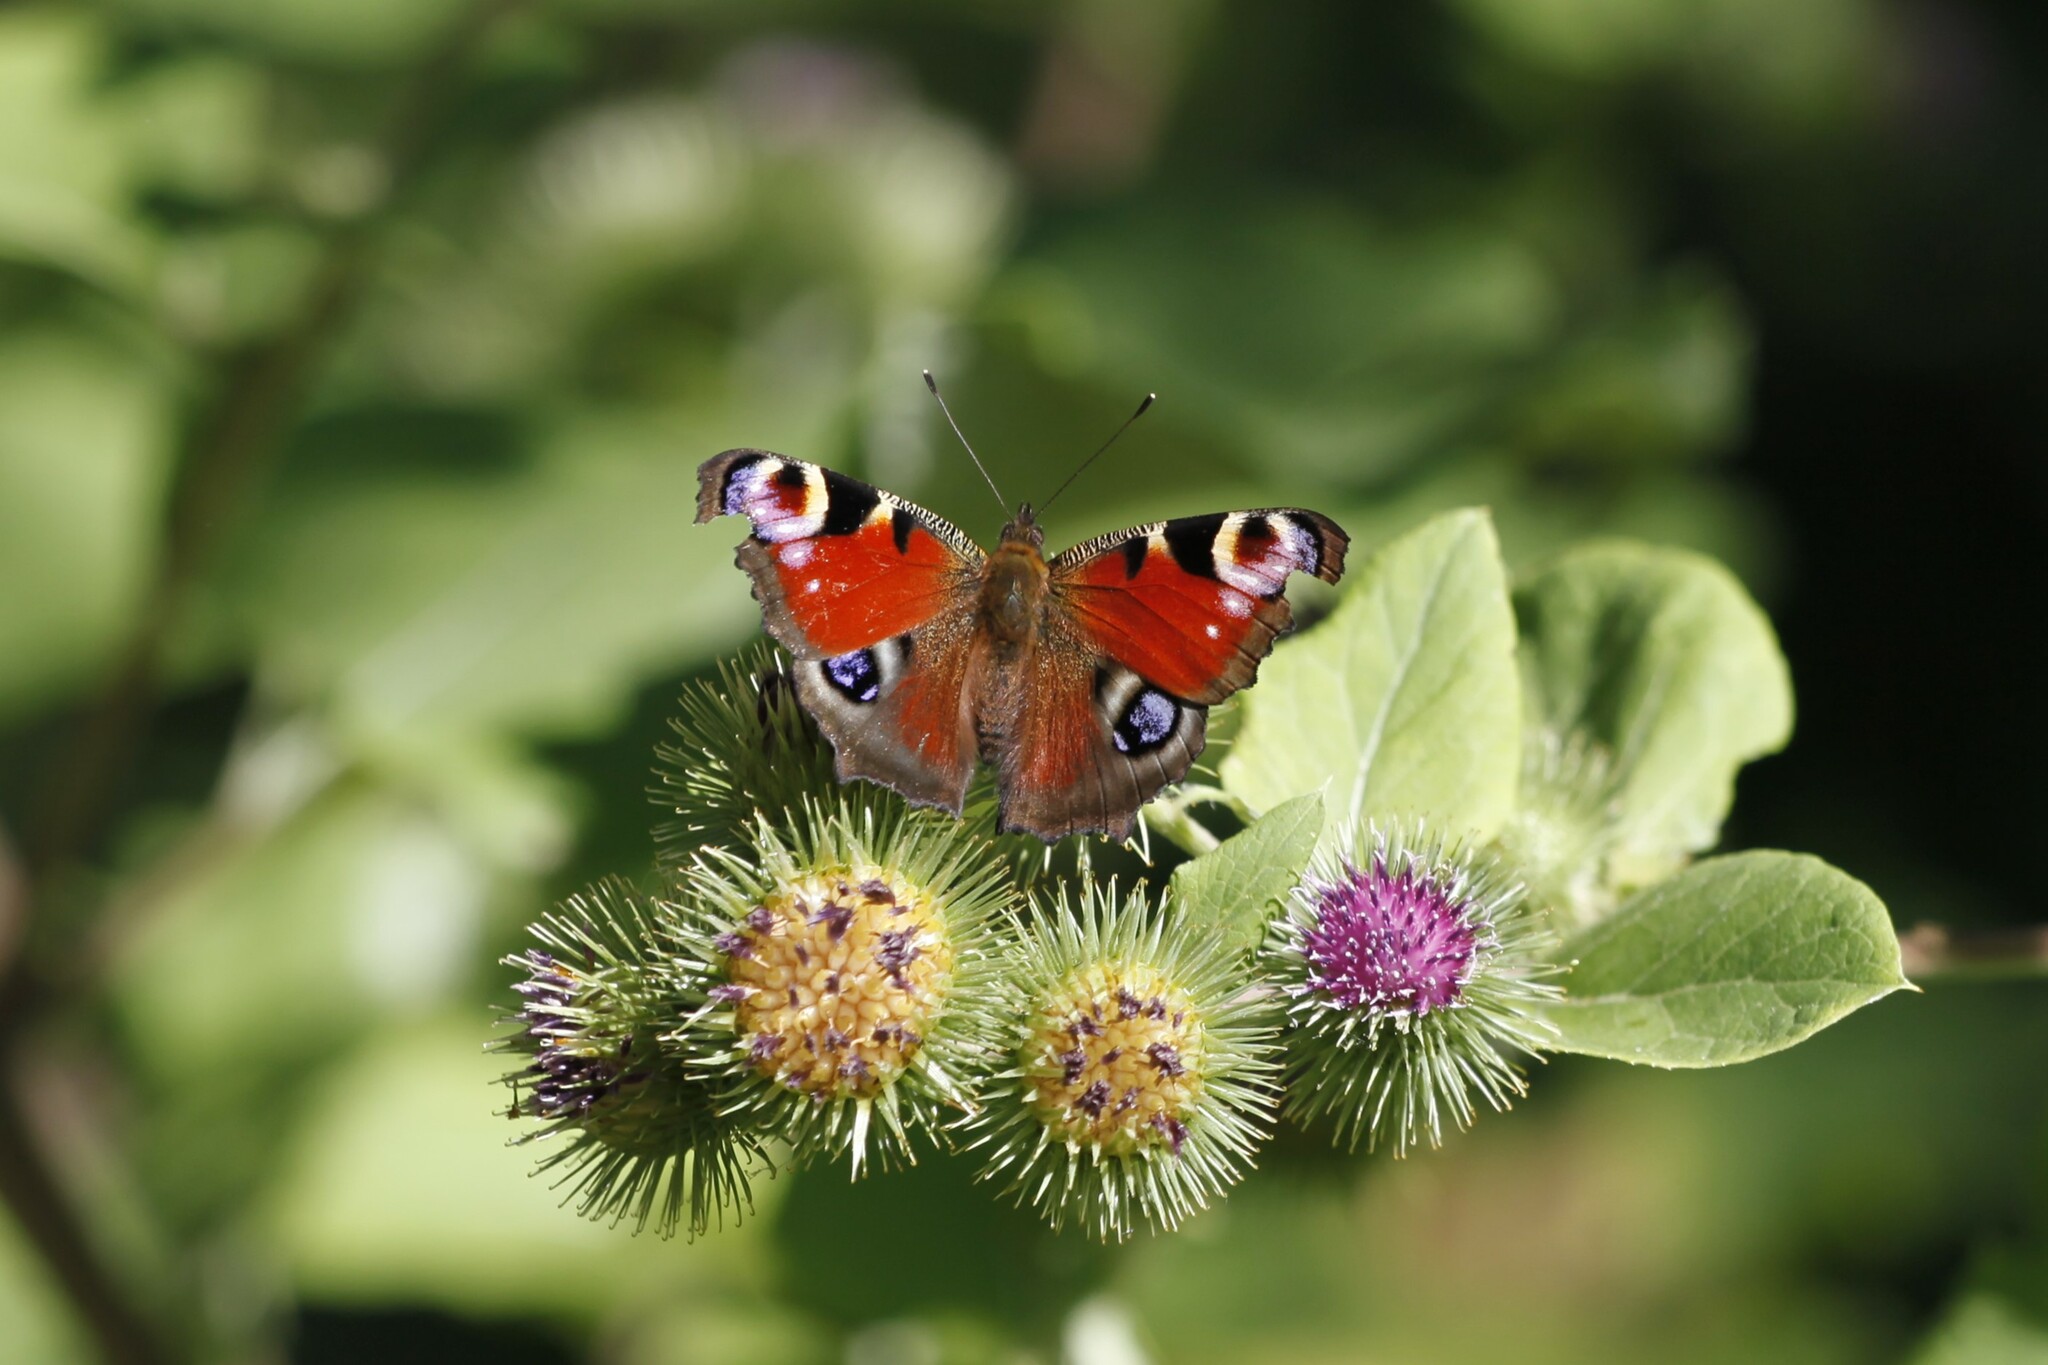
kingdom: Animalia
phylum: Arthropoda
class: Insecta
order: Lepidoptera
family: Nymphalidae
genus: Aglais
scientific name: Aglais io
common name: Peacock
